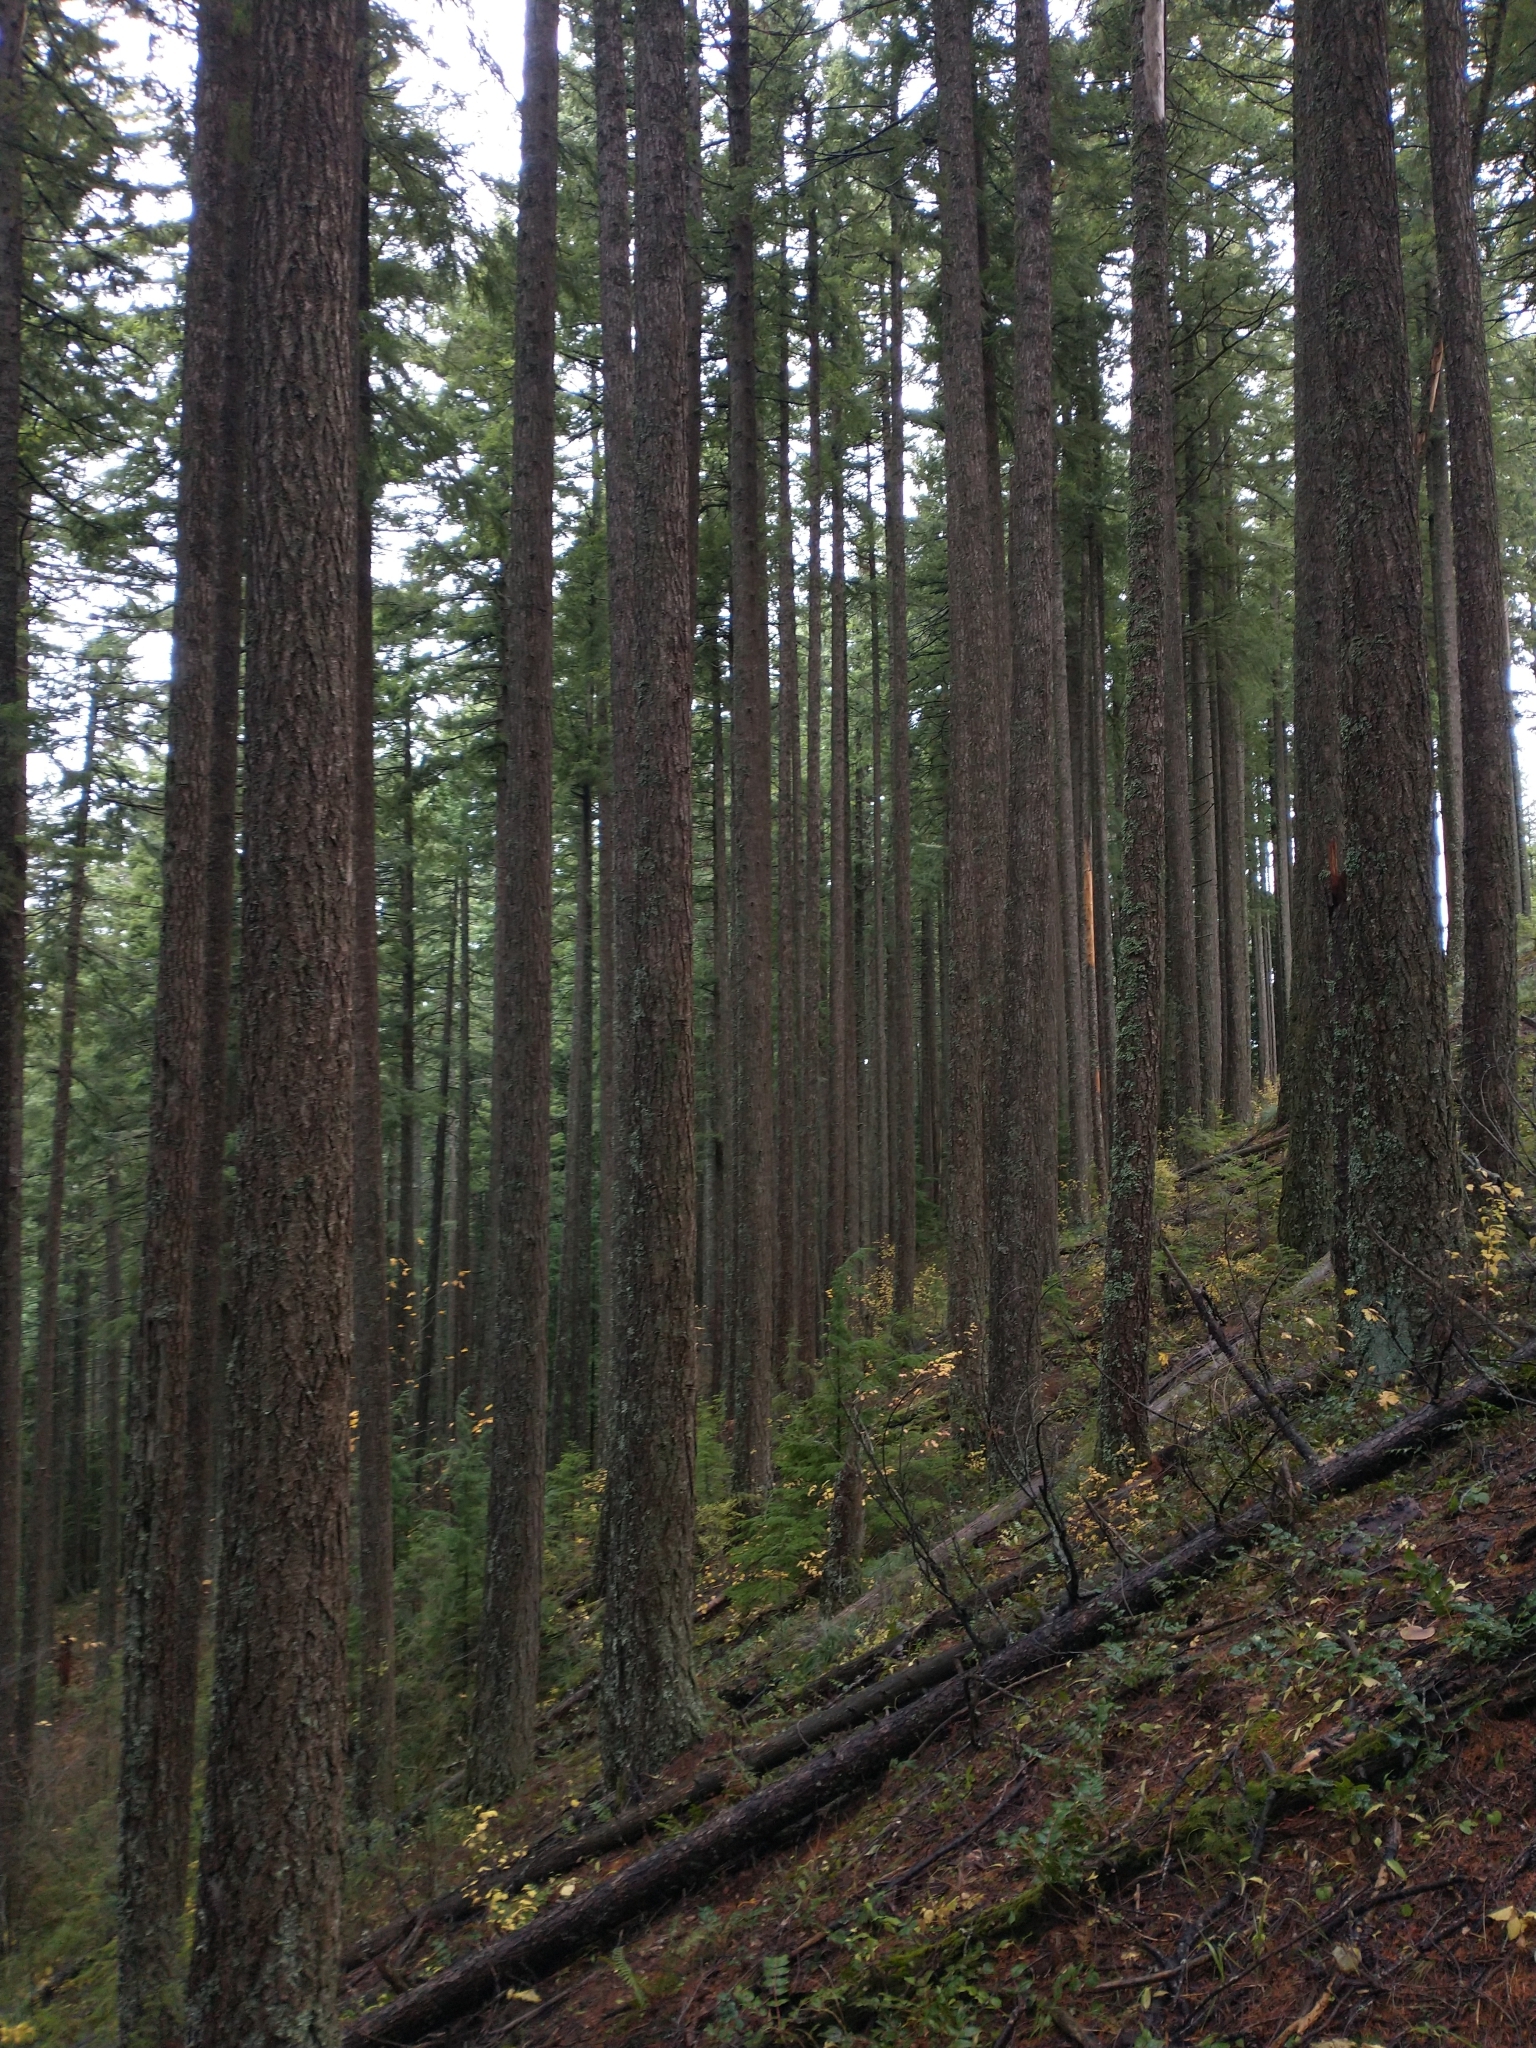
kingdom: Plantae
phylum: Tracheophyta
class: Pinopsida
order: Pinales
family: Pinaceae
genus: Tsuga
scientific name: Tsuga heterophylla
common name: Western hemlock
